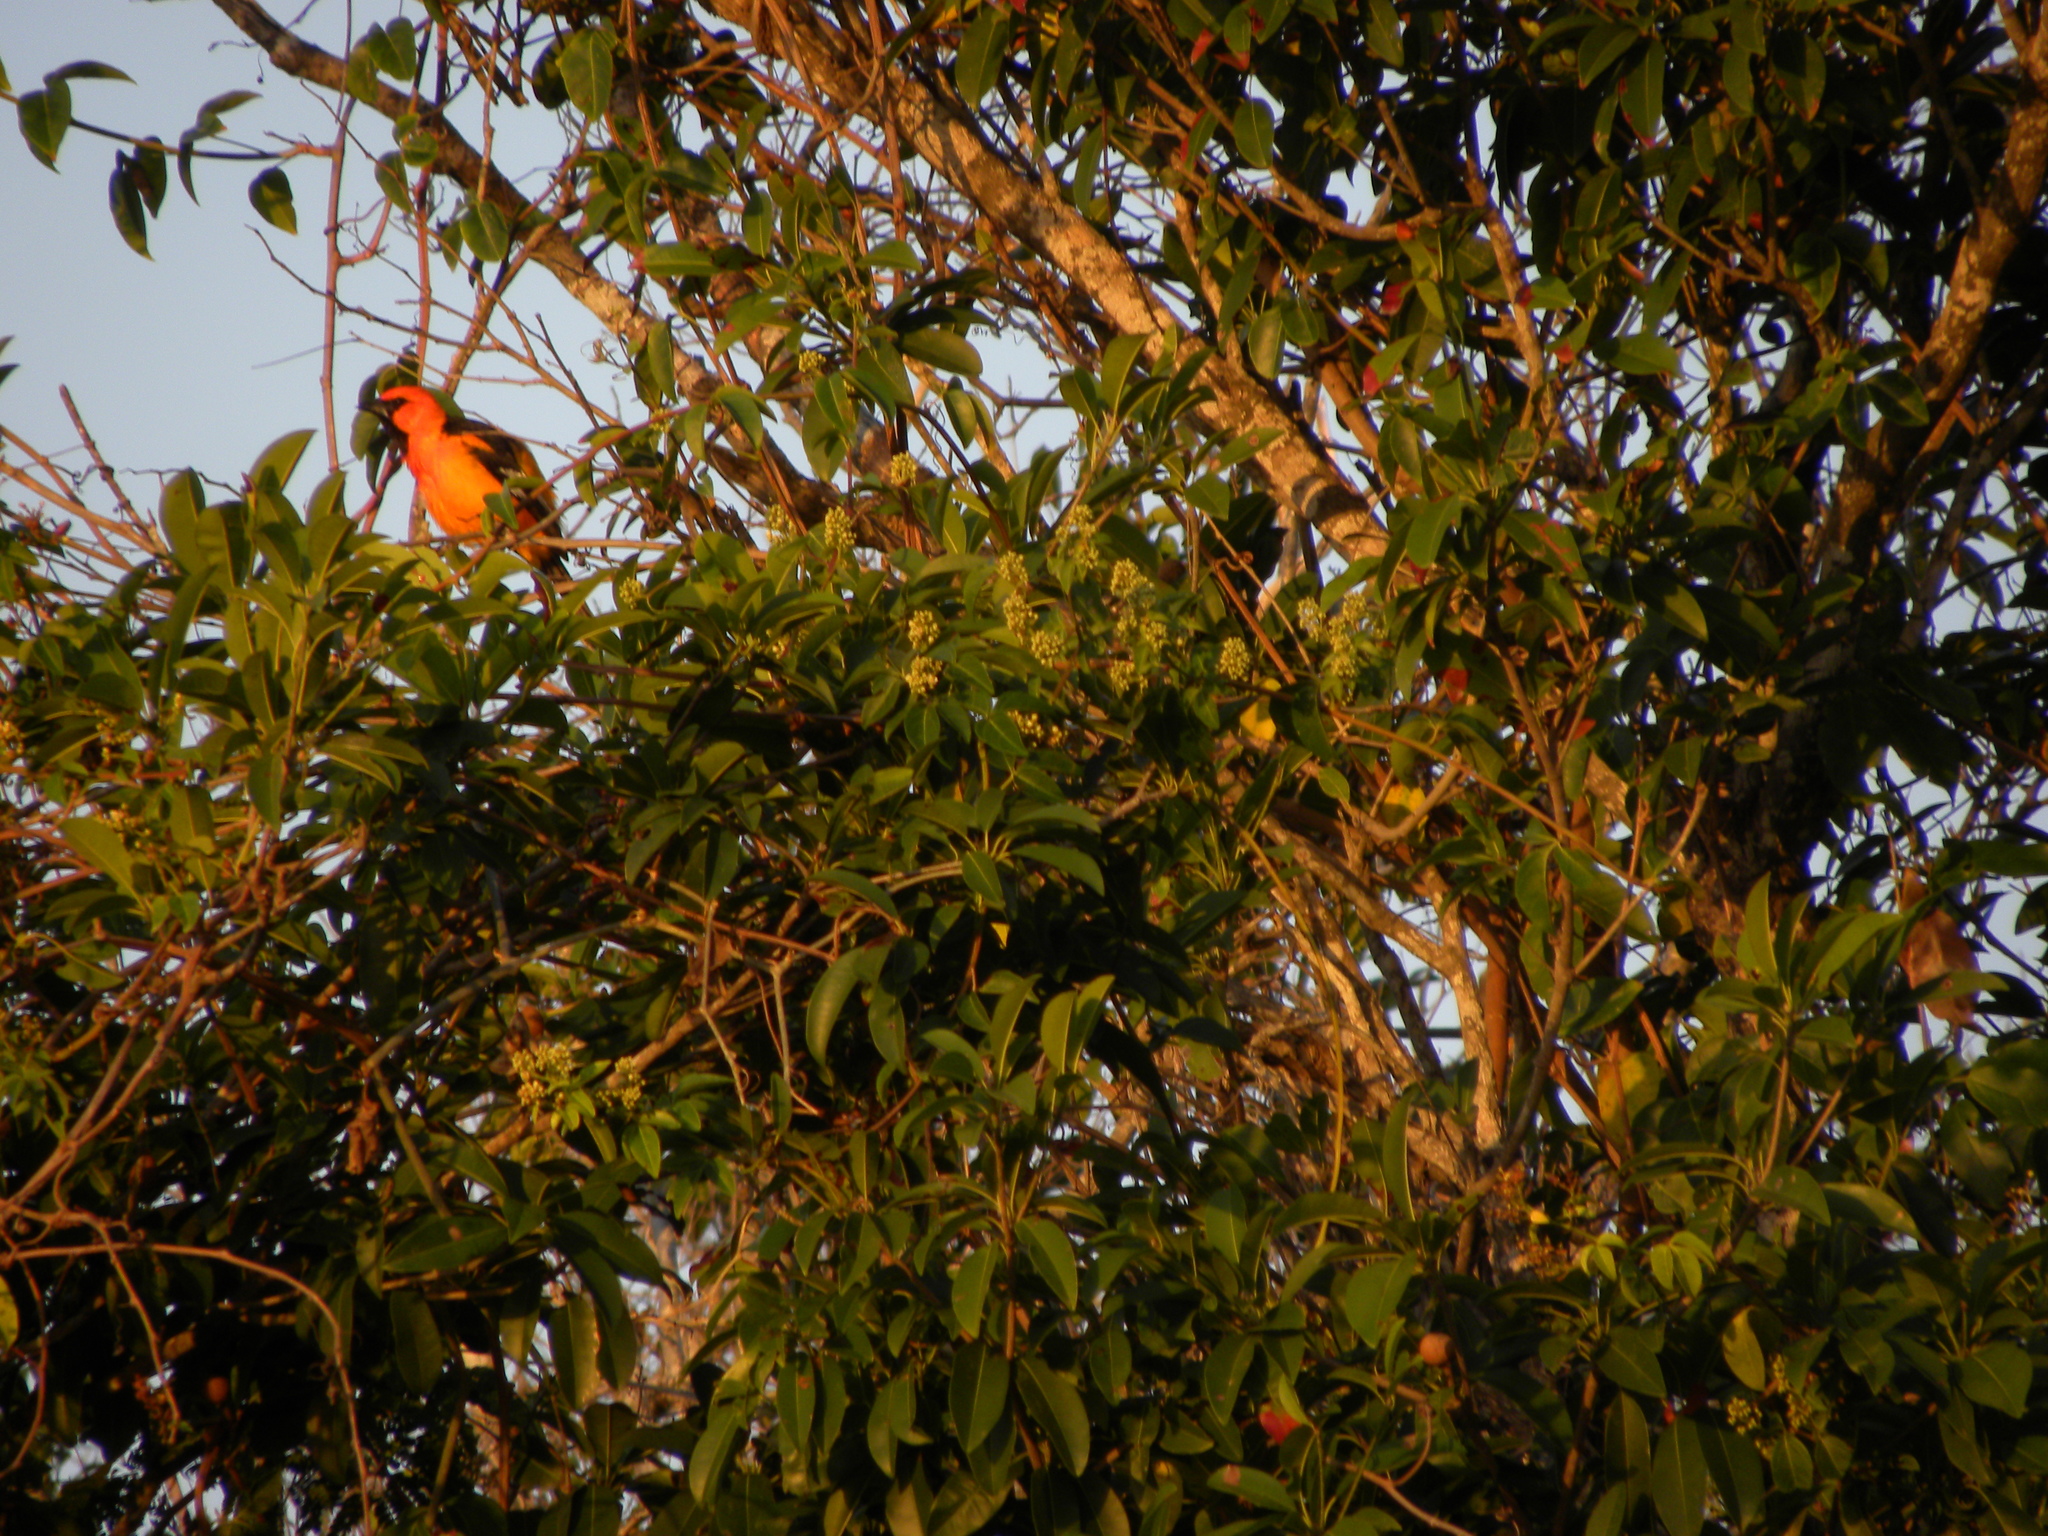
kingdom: Animalia
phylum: Chordata
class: Aves
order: Passeriformes
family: Icteridae
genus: Icterus
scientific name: Icterus gularis
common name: Altamira oriole
